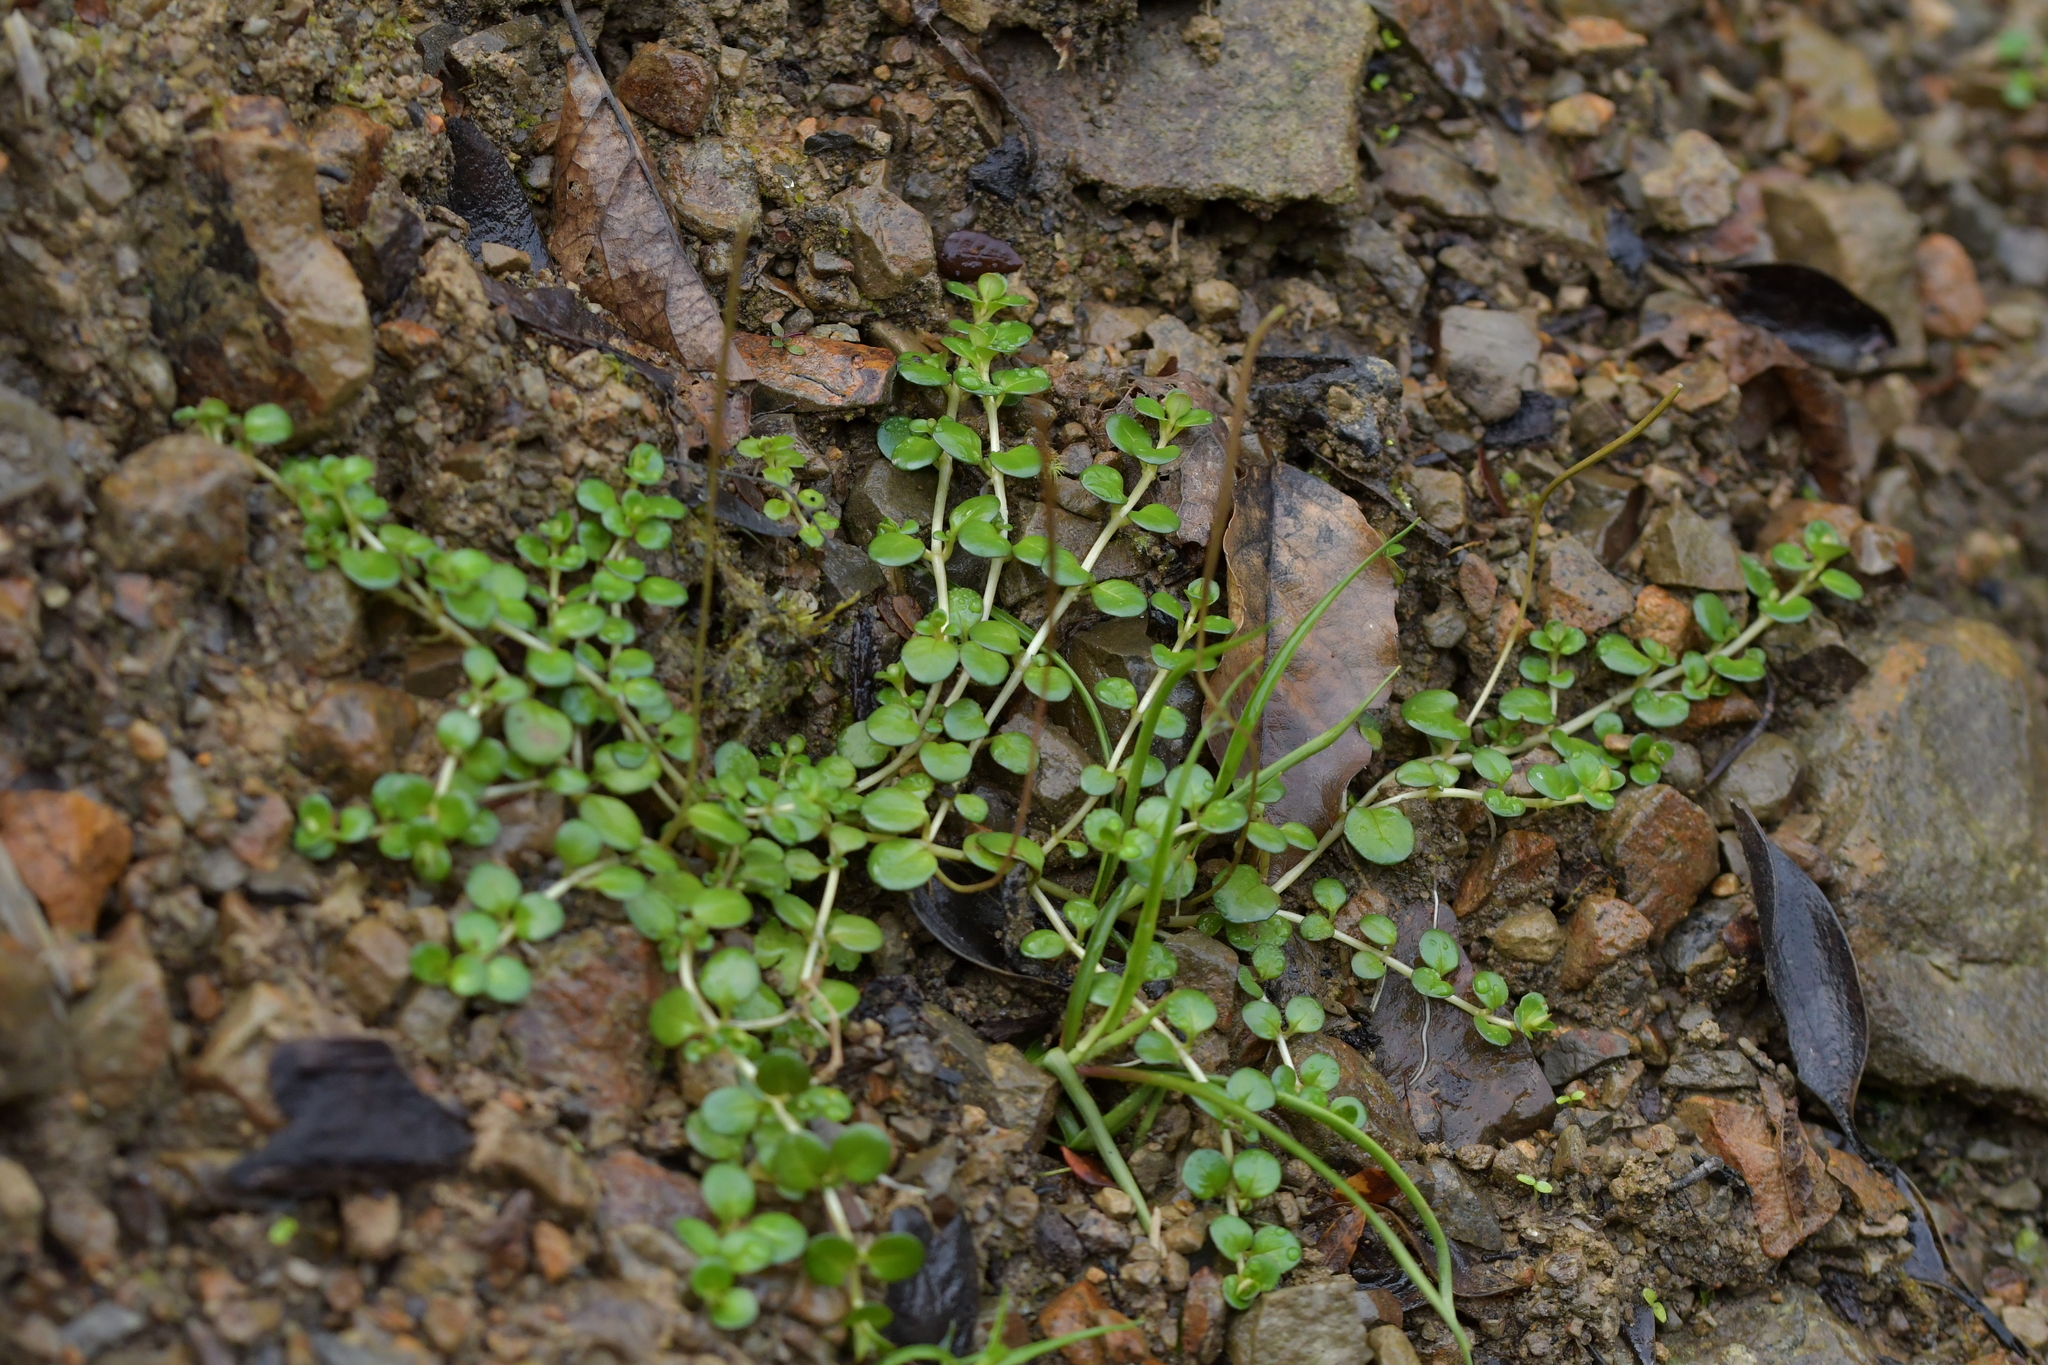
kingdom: Plantae
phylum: Tracheophyta
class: Magnoliopsida
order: Myrtales
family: Onagraceae
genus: Epilobium
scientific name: Epilobium brunnescens
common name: New zealand willowherb
